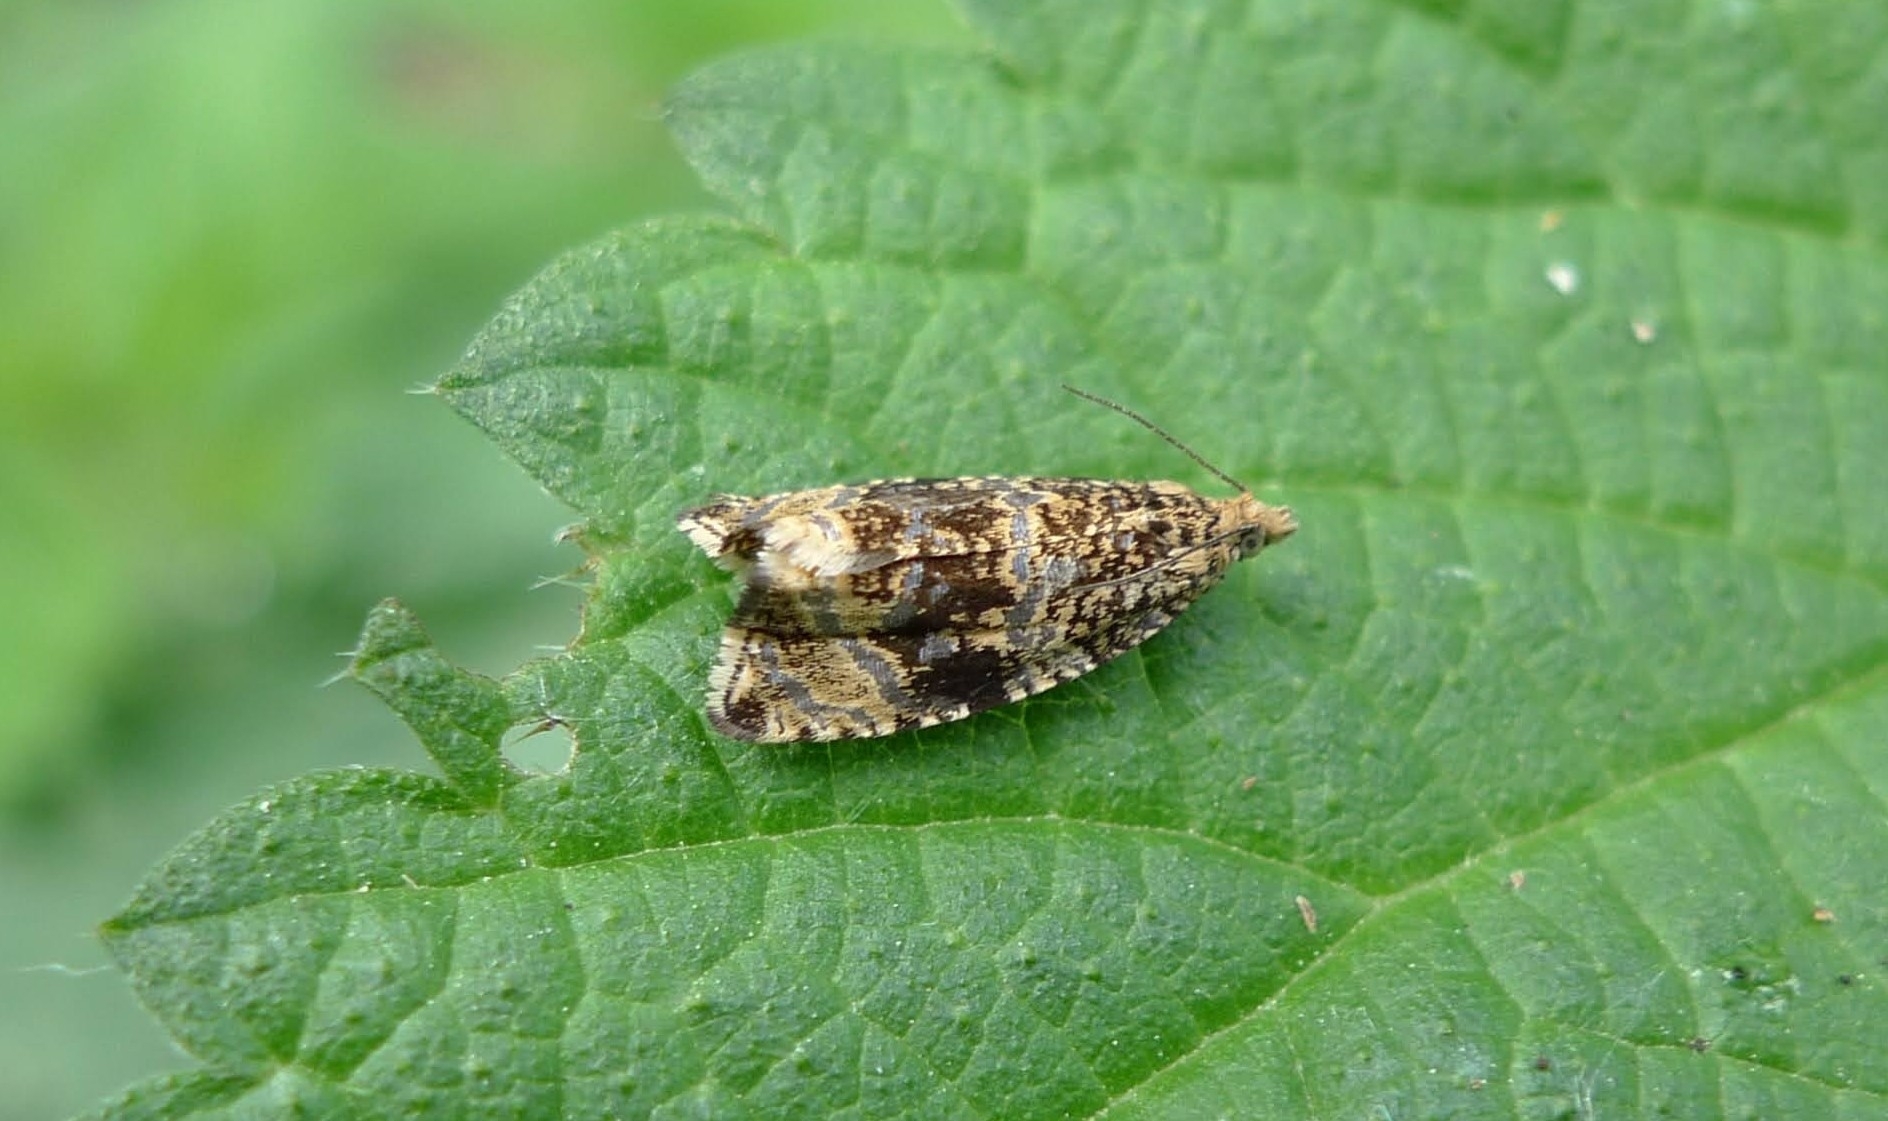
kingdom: Animalia
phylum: Arthropoda
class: Insecta
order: Lepidoptera
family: Tortricidae
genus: Syricoris
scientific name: Syricoris lacunana
